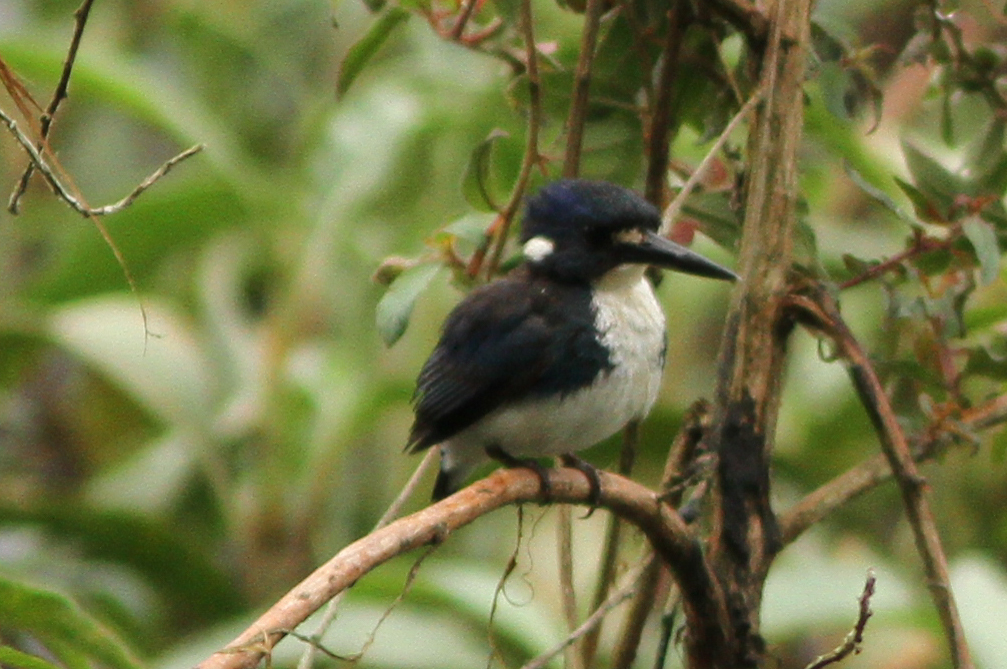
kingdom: Animalia
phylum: Chordata
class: Aves
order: Coraciiformes
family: Alcedinidae
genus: Ceyx
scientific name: Ceyx pusillus
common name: Little kingfisher
